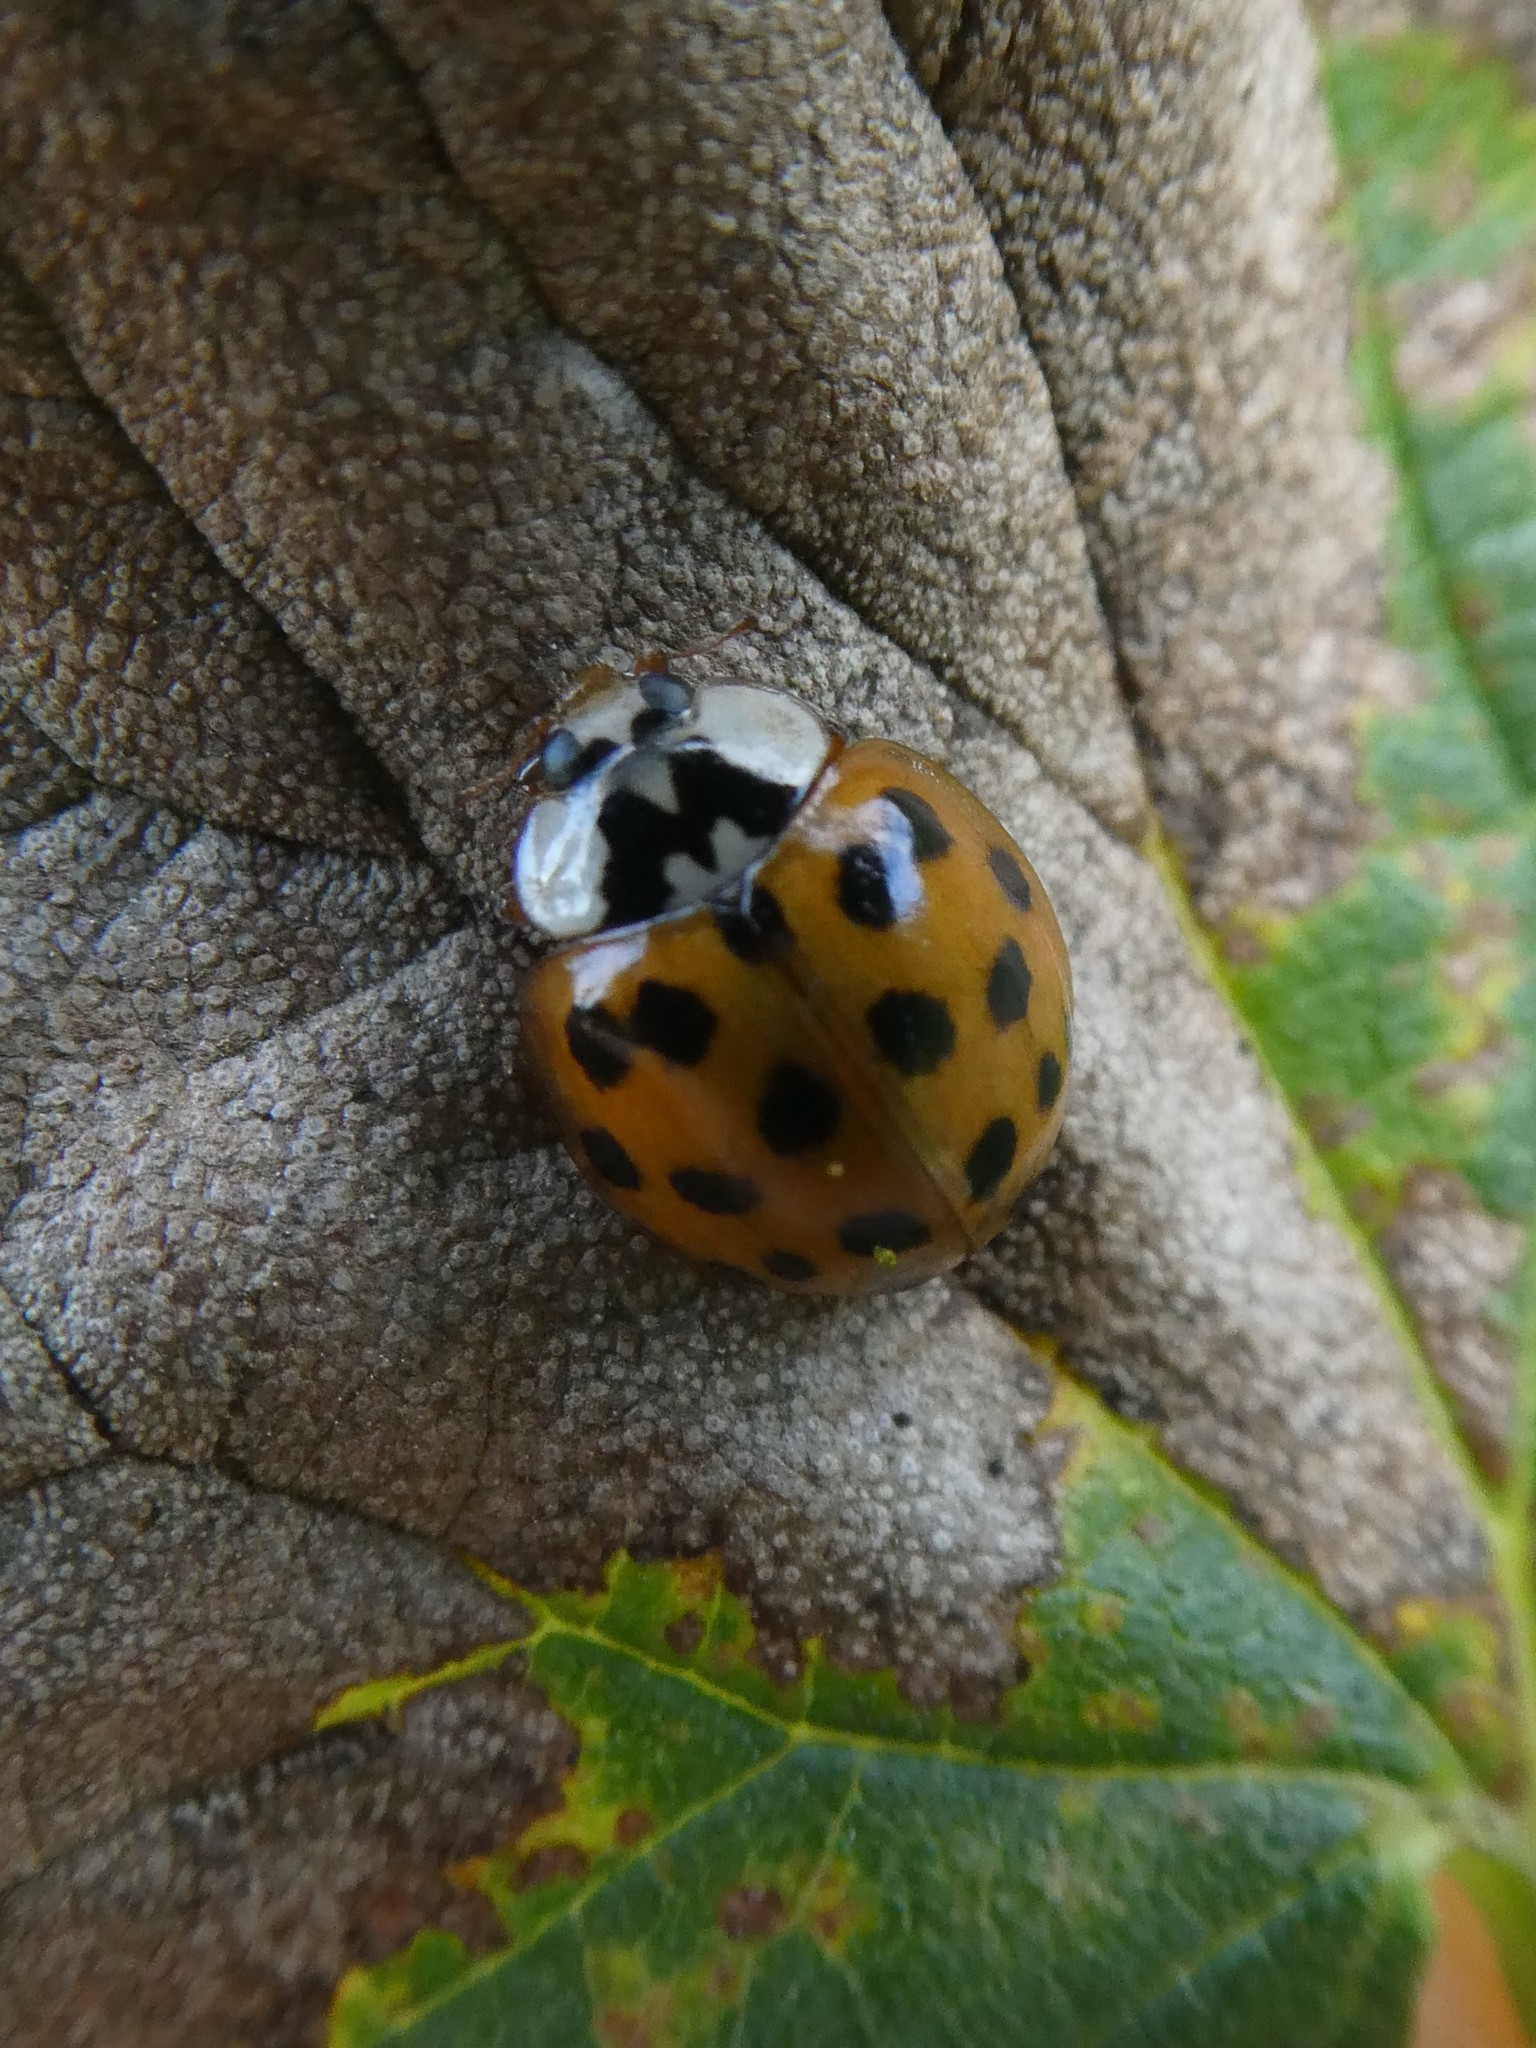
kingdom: Animalia
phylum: Arthropoda
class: Insecta
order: Coleoptera
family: Coccinellidae
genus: Harmonia
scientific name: Harmonia axyridis
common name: Harlequin ladybird
